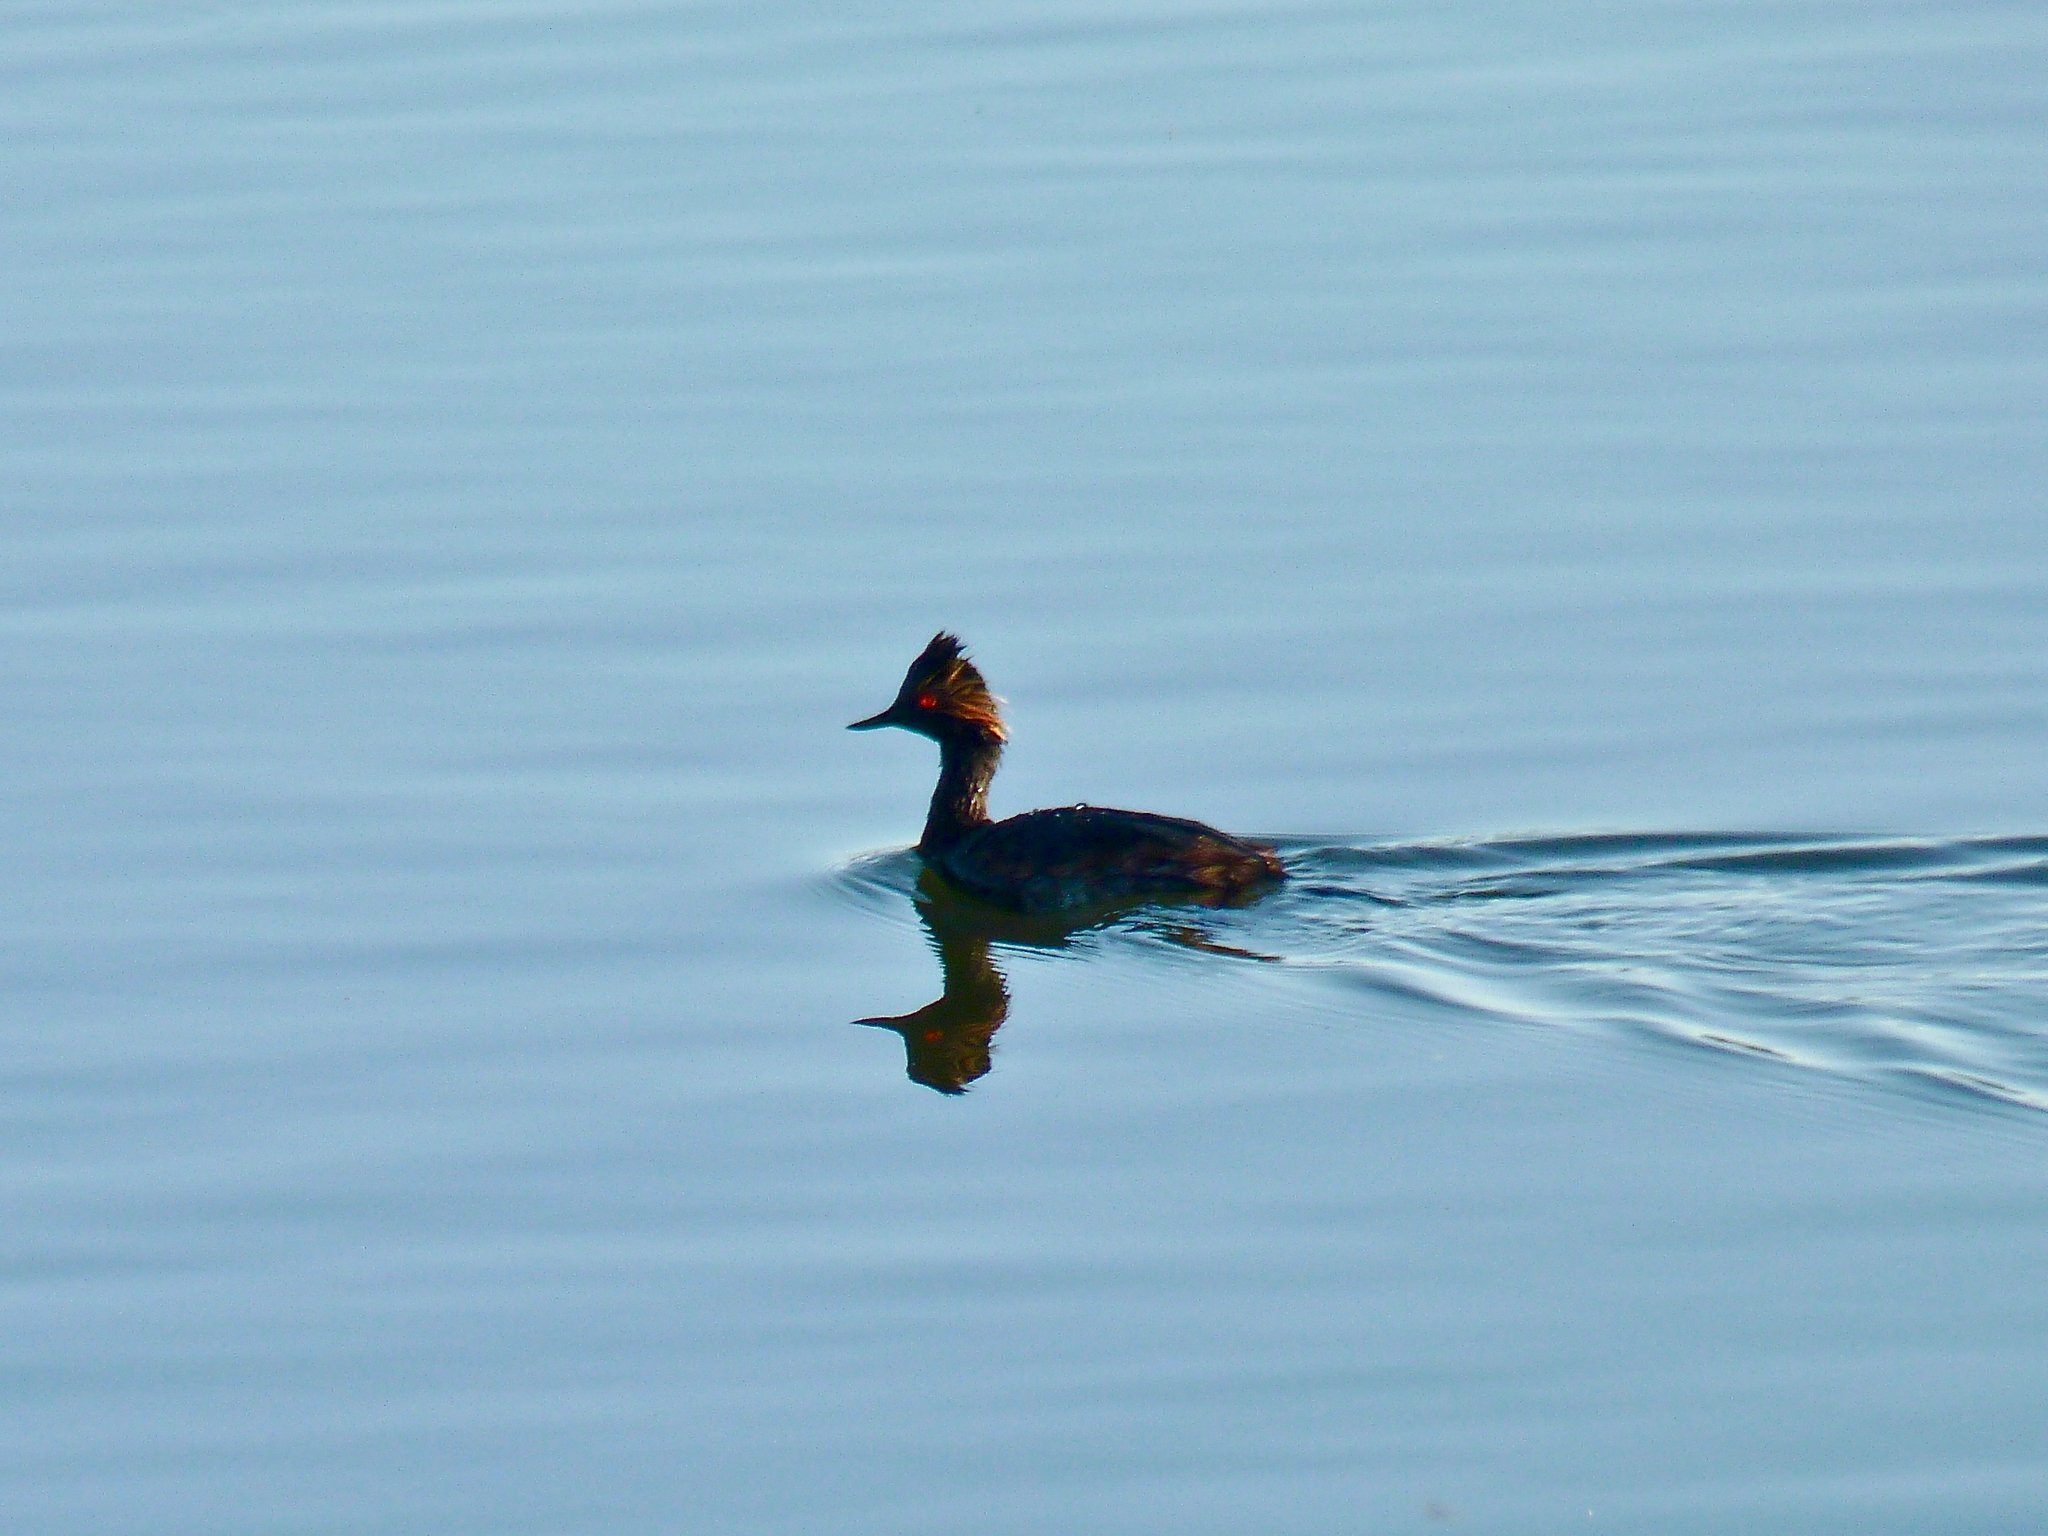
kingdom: Animalia
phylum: Chordata
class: Aves
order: Podicipediformes
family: Podicipedidae
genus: Podiceps
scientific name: Podiceps nigricollis
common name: Black-necked grebe
